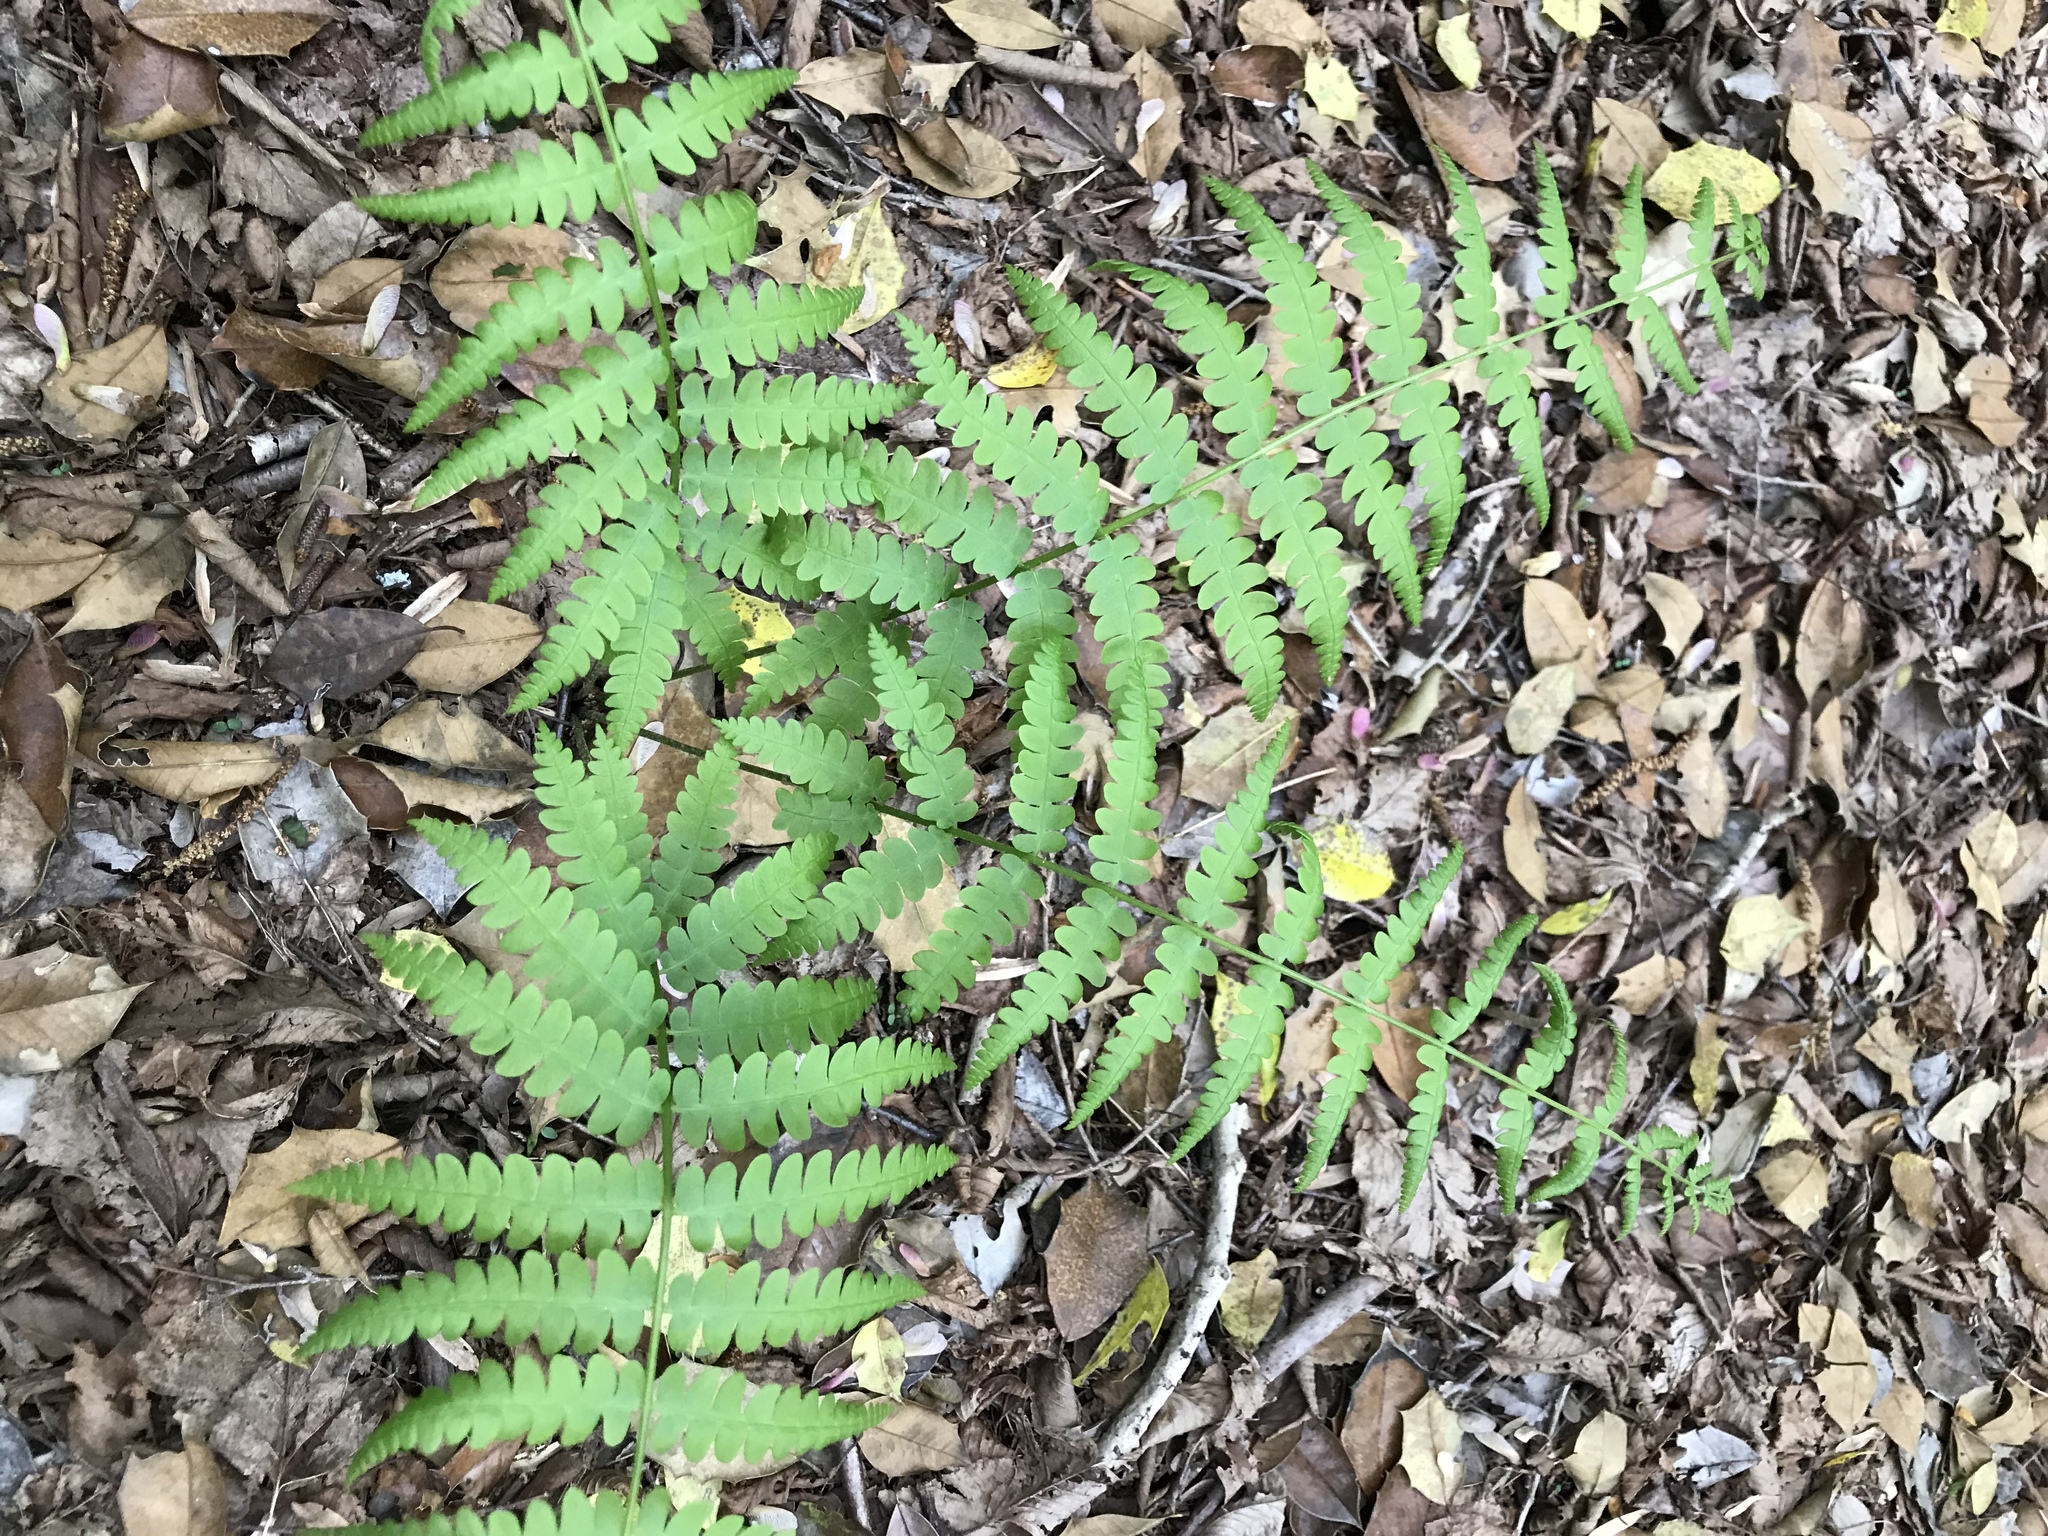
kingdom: Plantae
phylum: Tracheophyta
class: Polypodiopsida
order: Osmundales
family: Osmundaceae
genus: Osmundastrum
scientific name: Osmundastrum cinnamomeum
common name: Cinnamon fern
